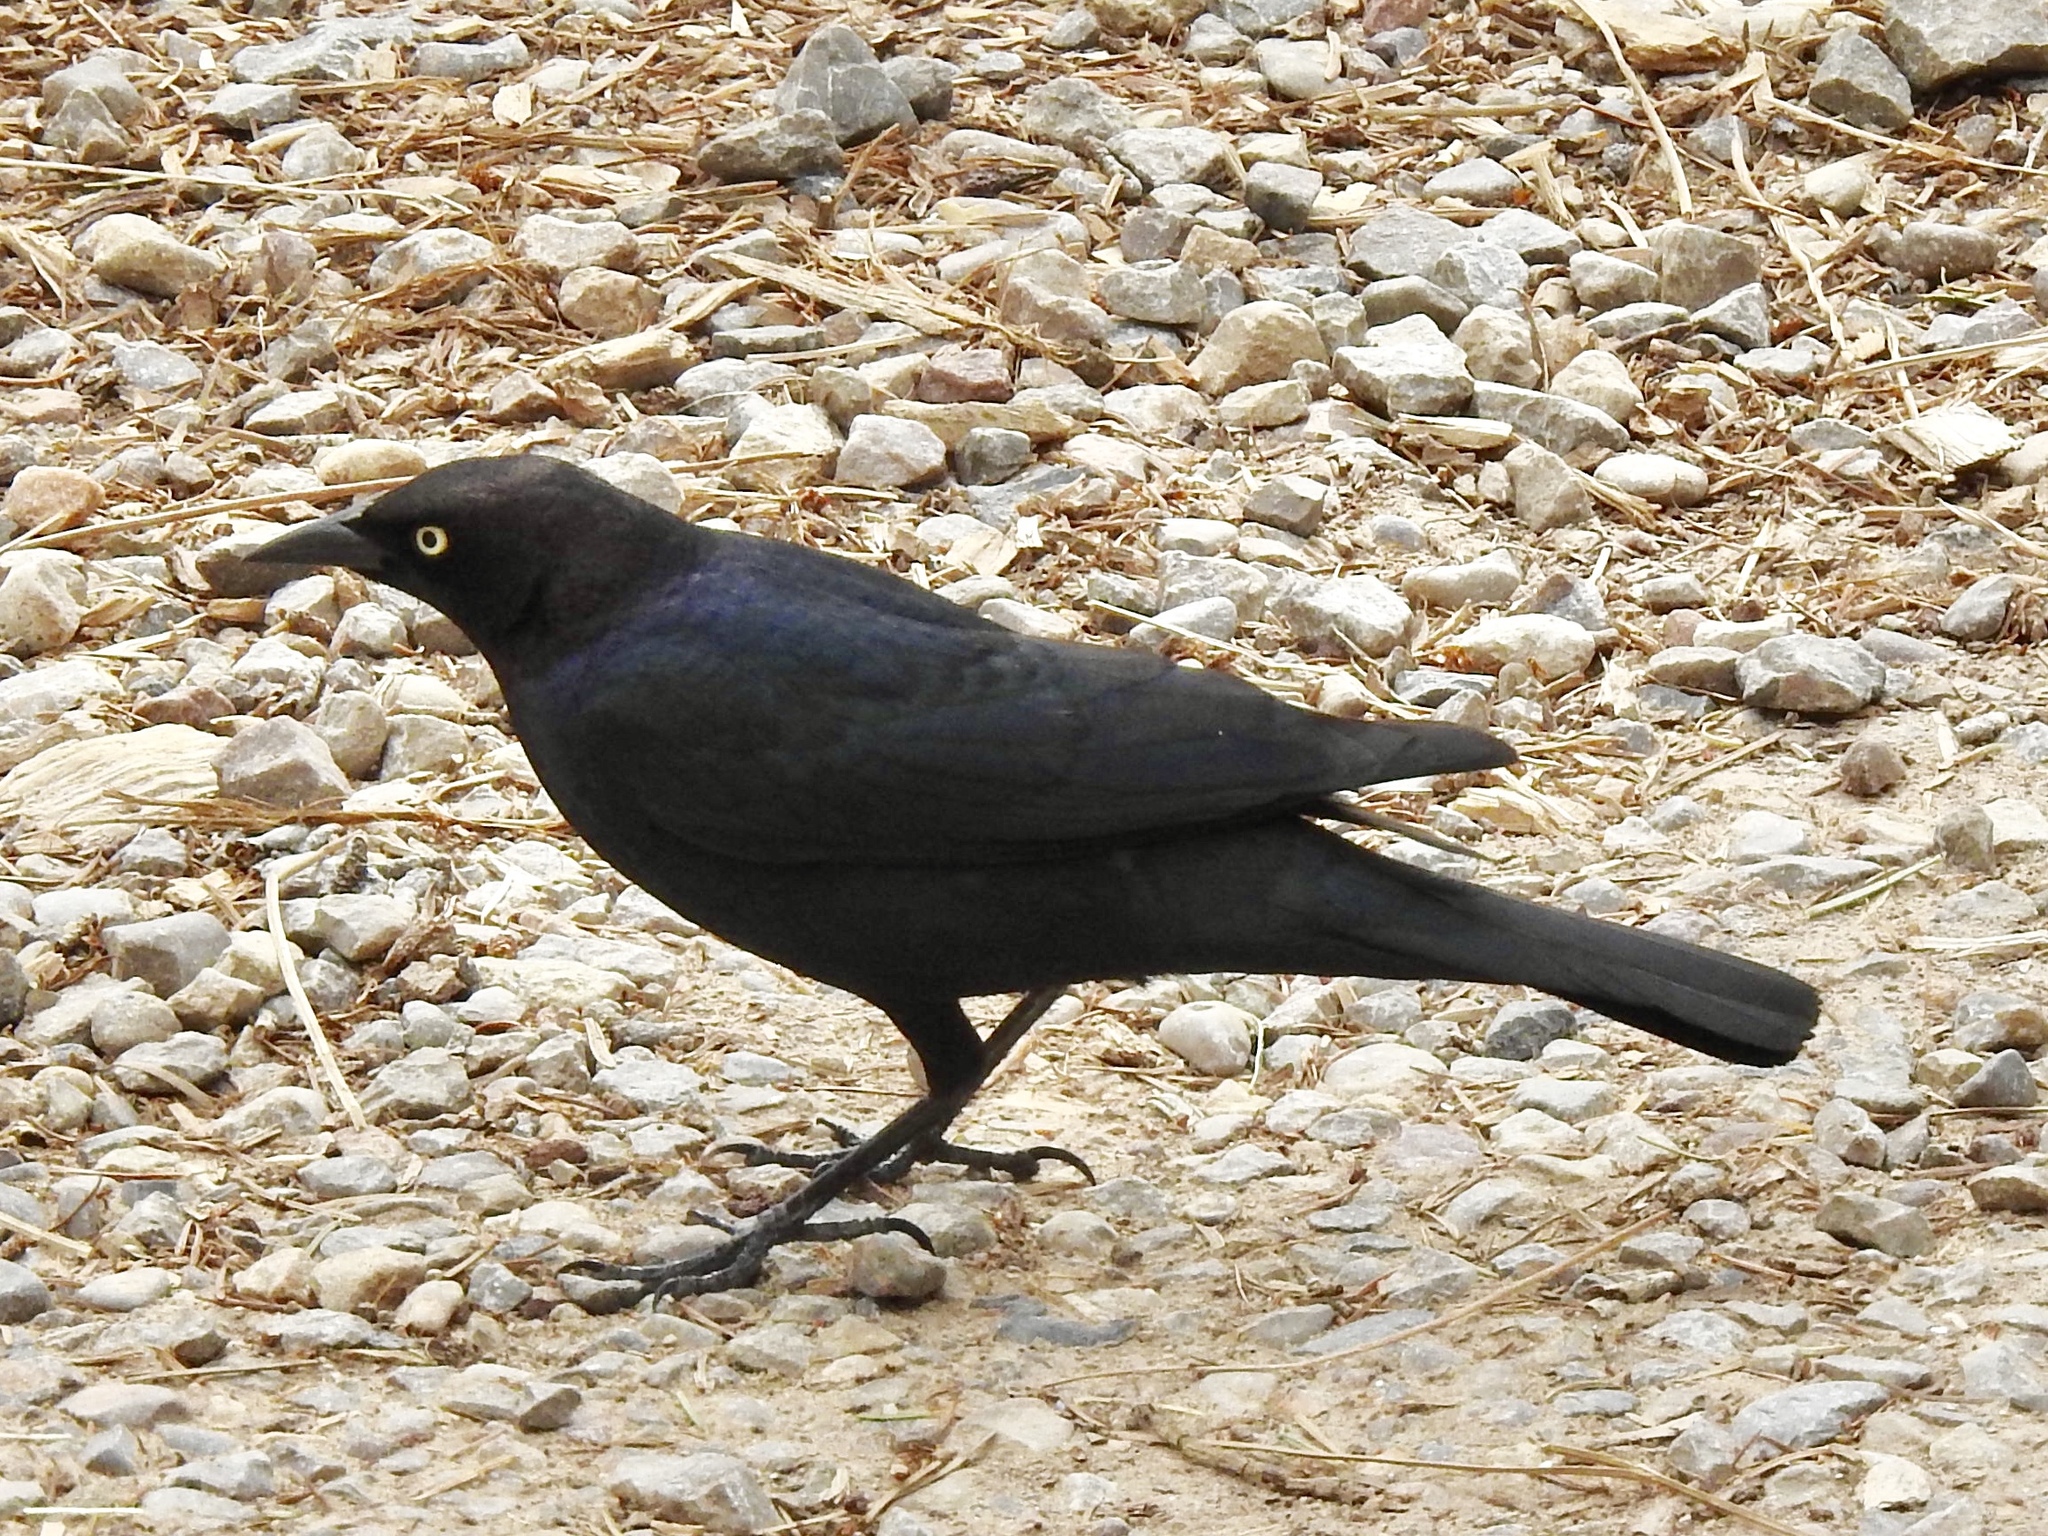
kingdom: Animalia
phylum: Chordata
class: Aves
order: Passeriformes
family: Icteridae
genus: Euphagus
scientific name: Euphagus cyanocephalus
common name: Brewer's blackbird
